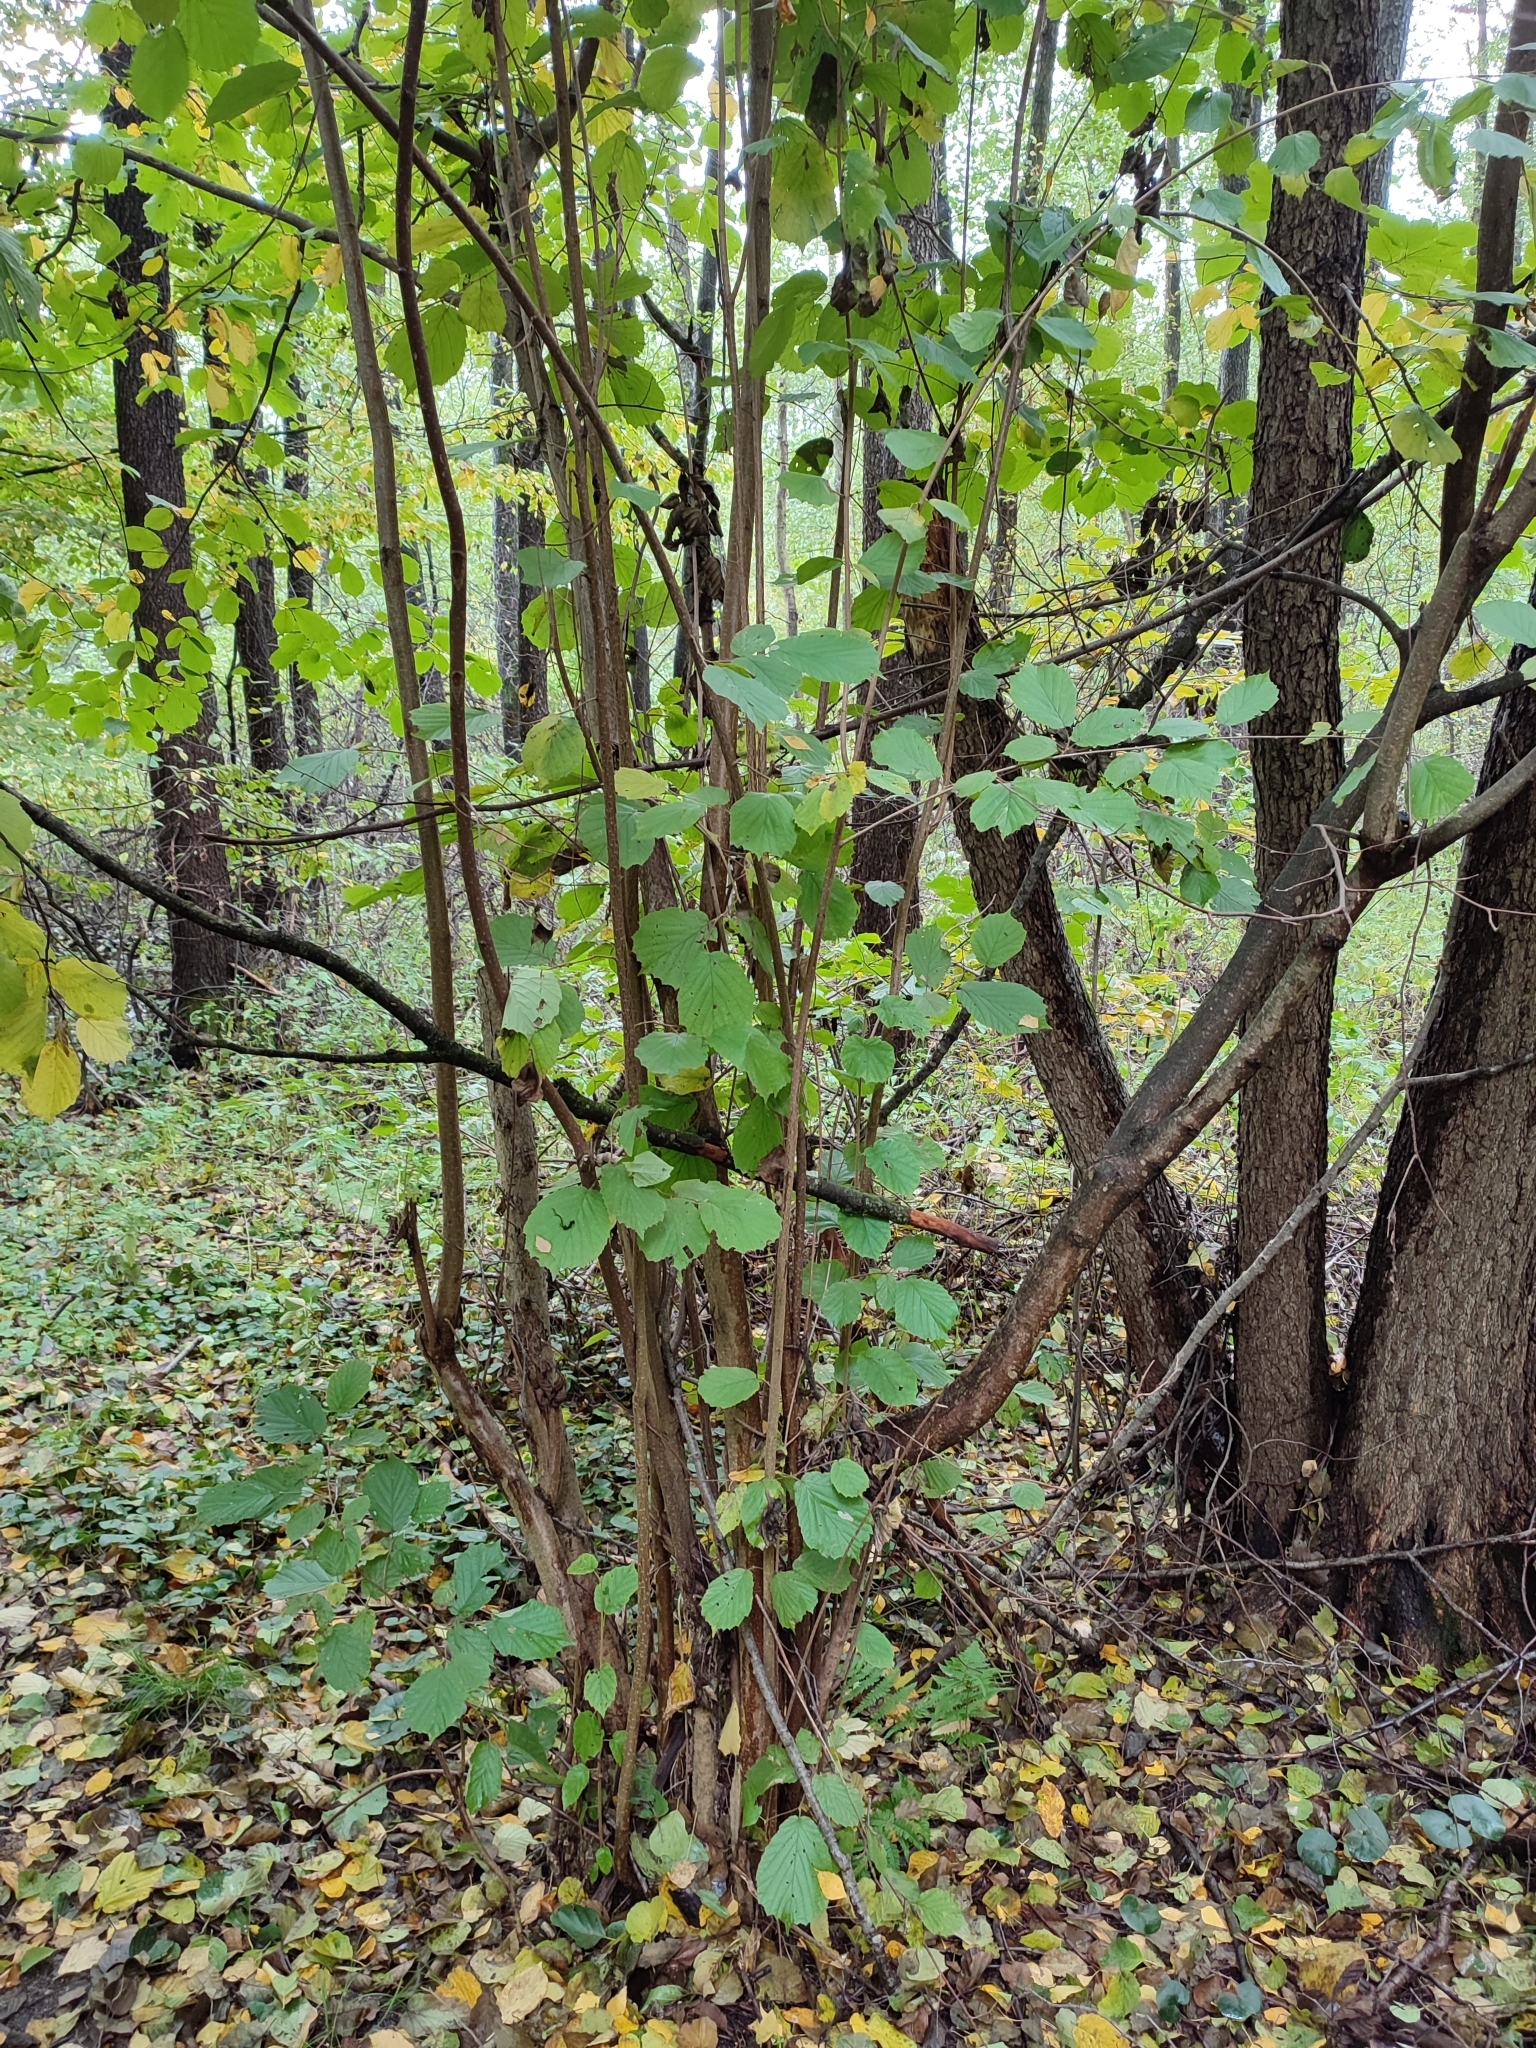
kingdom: Plantae
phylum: Tracheophyta
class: Magnoliopsida
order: Fagales
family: Betulaceae
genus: Corylus
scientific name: Corylus avellana
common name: European hazel
